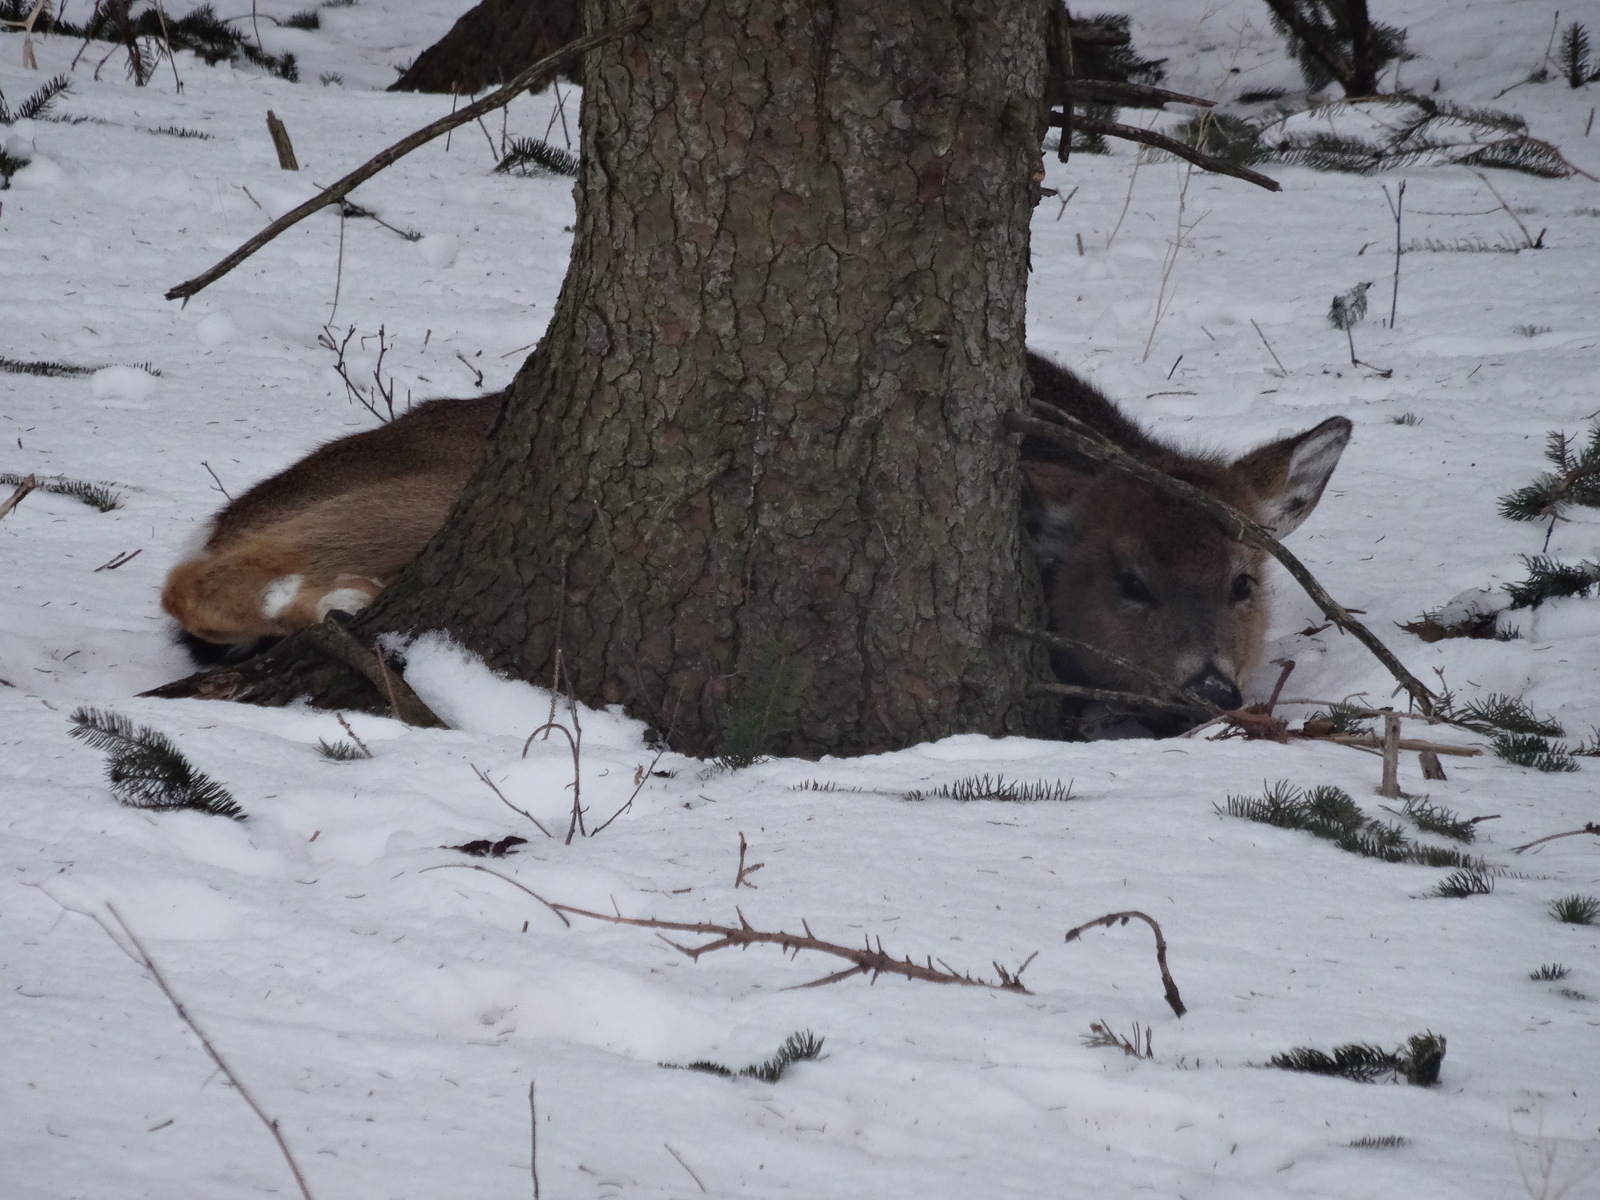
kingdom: Animalia
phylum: Chordata
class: Mammalia
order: Artiodactyla
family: Cervidae
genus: Odocoileus
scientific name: Odocoileus virginianus
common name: White-tailed deer
